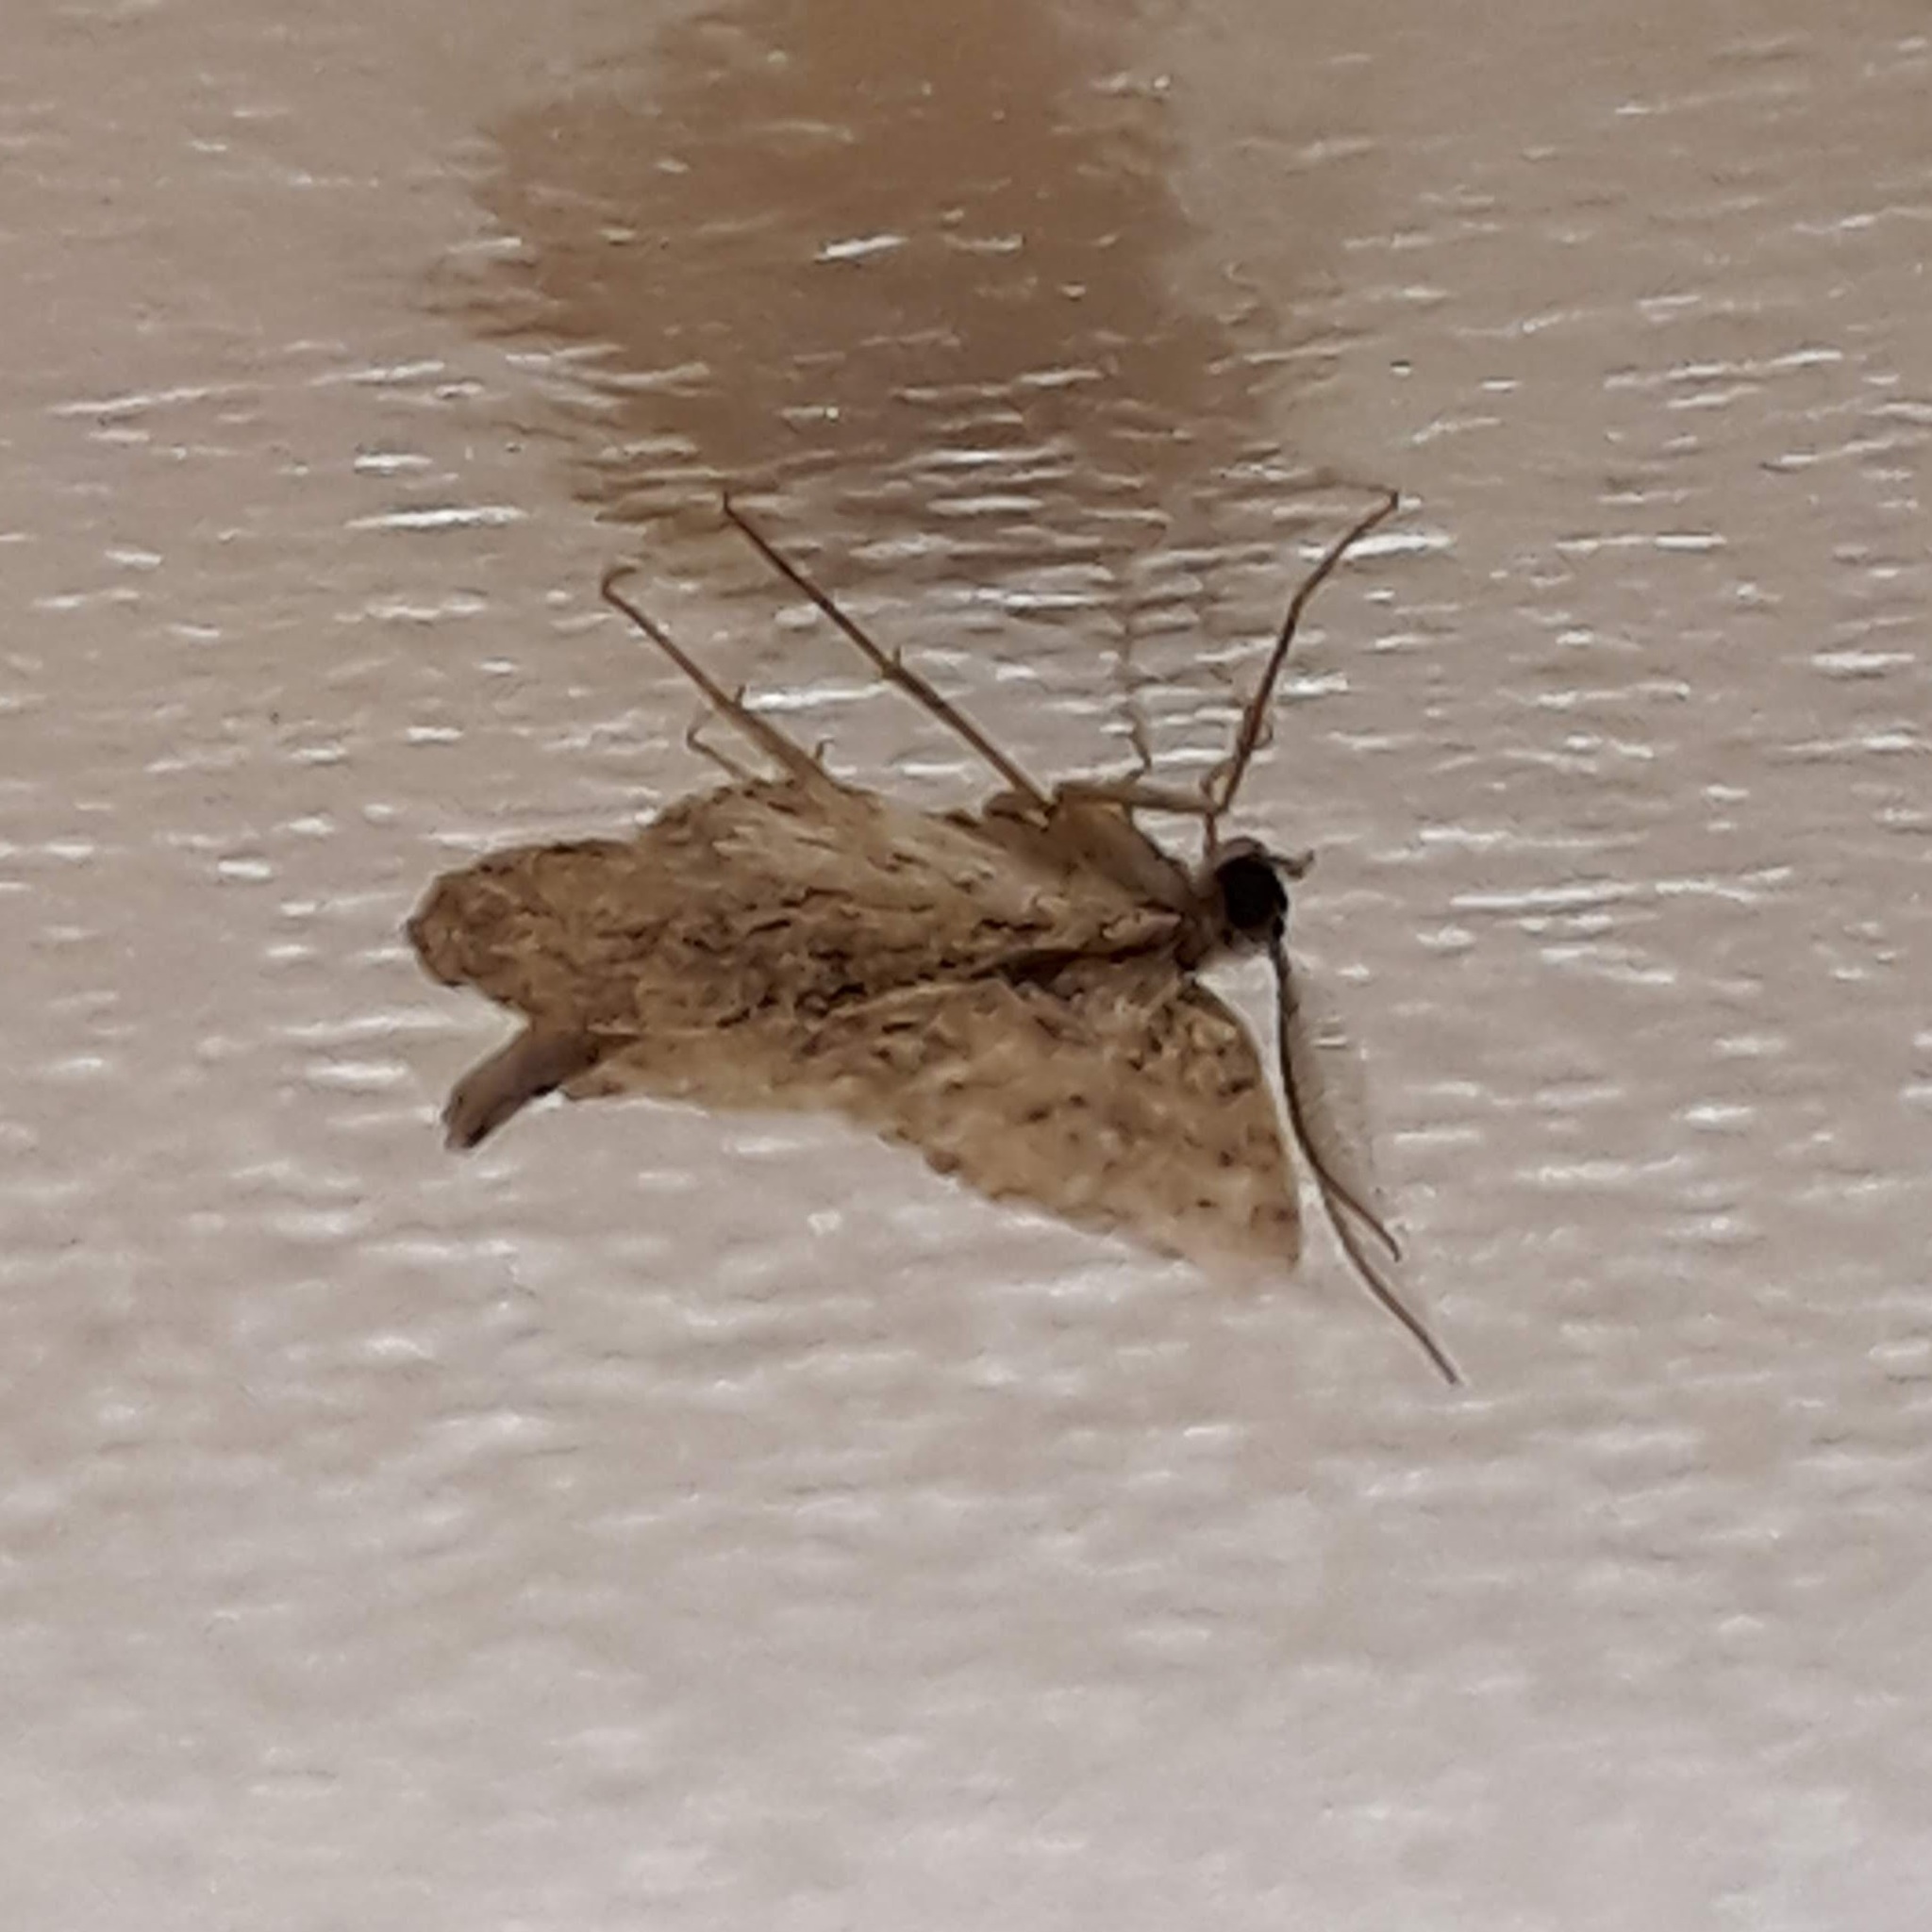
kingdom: Animalia
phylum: Arthropoda
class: Insecta
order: Lepidoptera
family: Geometridae
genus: Protoboarmia
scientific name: Protoboarmia porcelaria
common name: Porcelain gray
